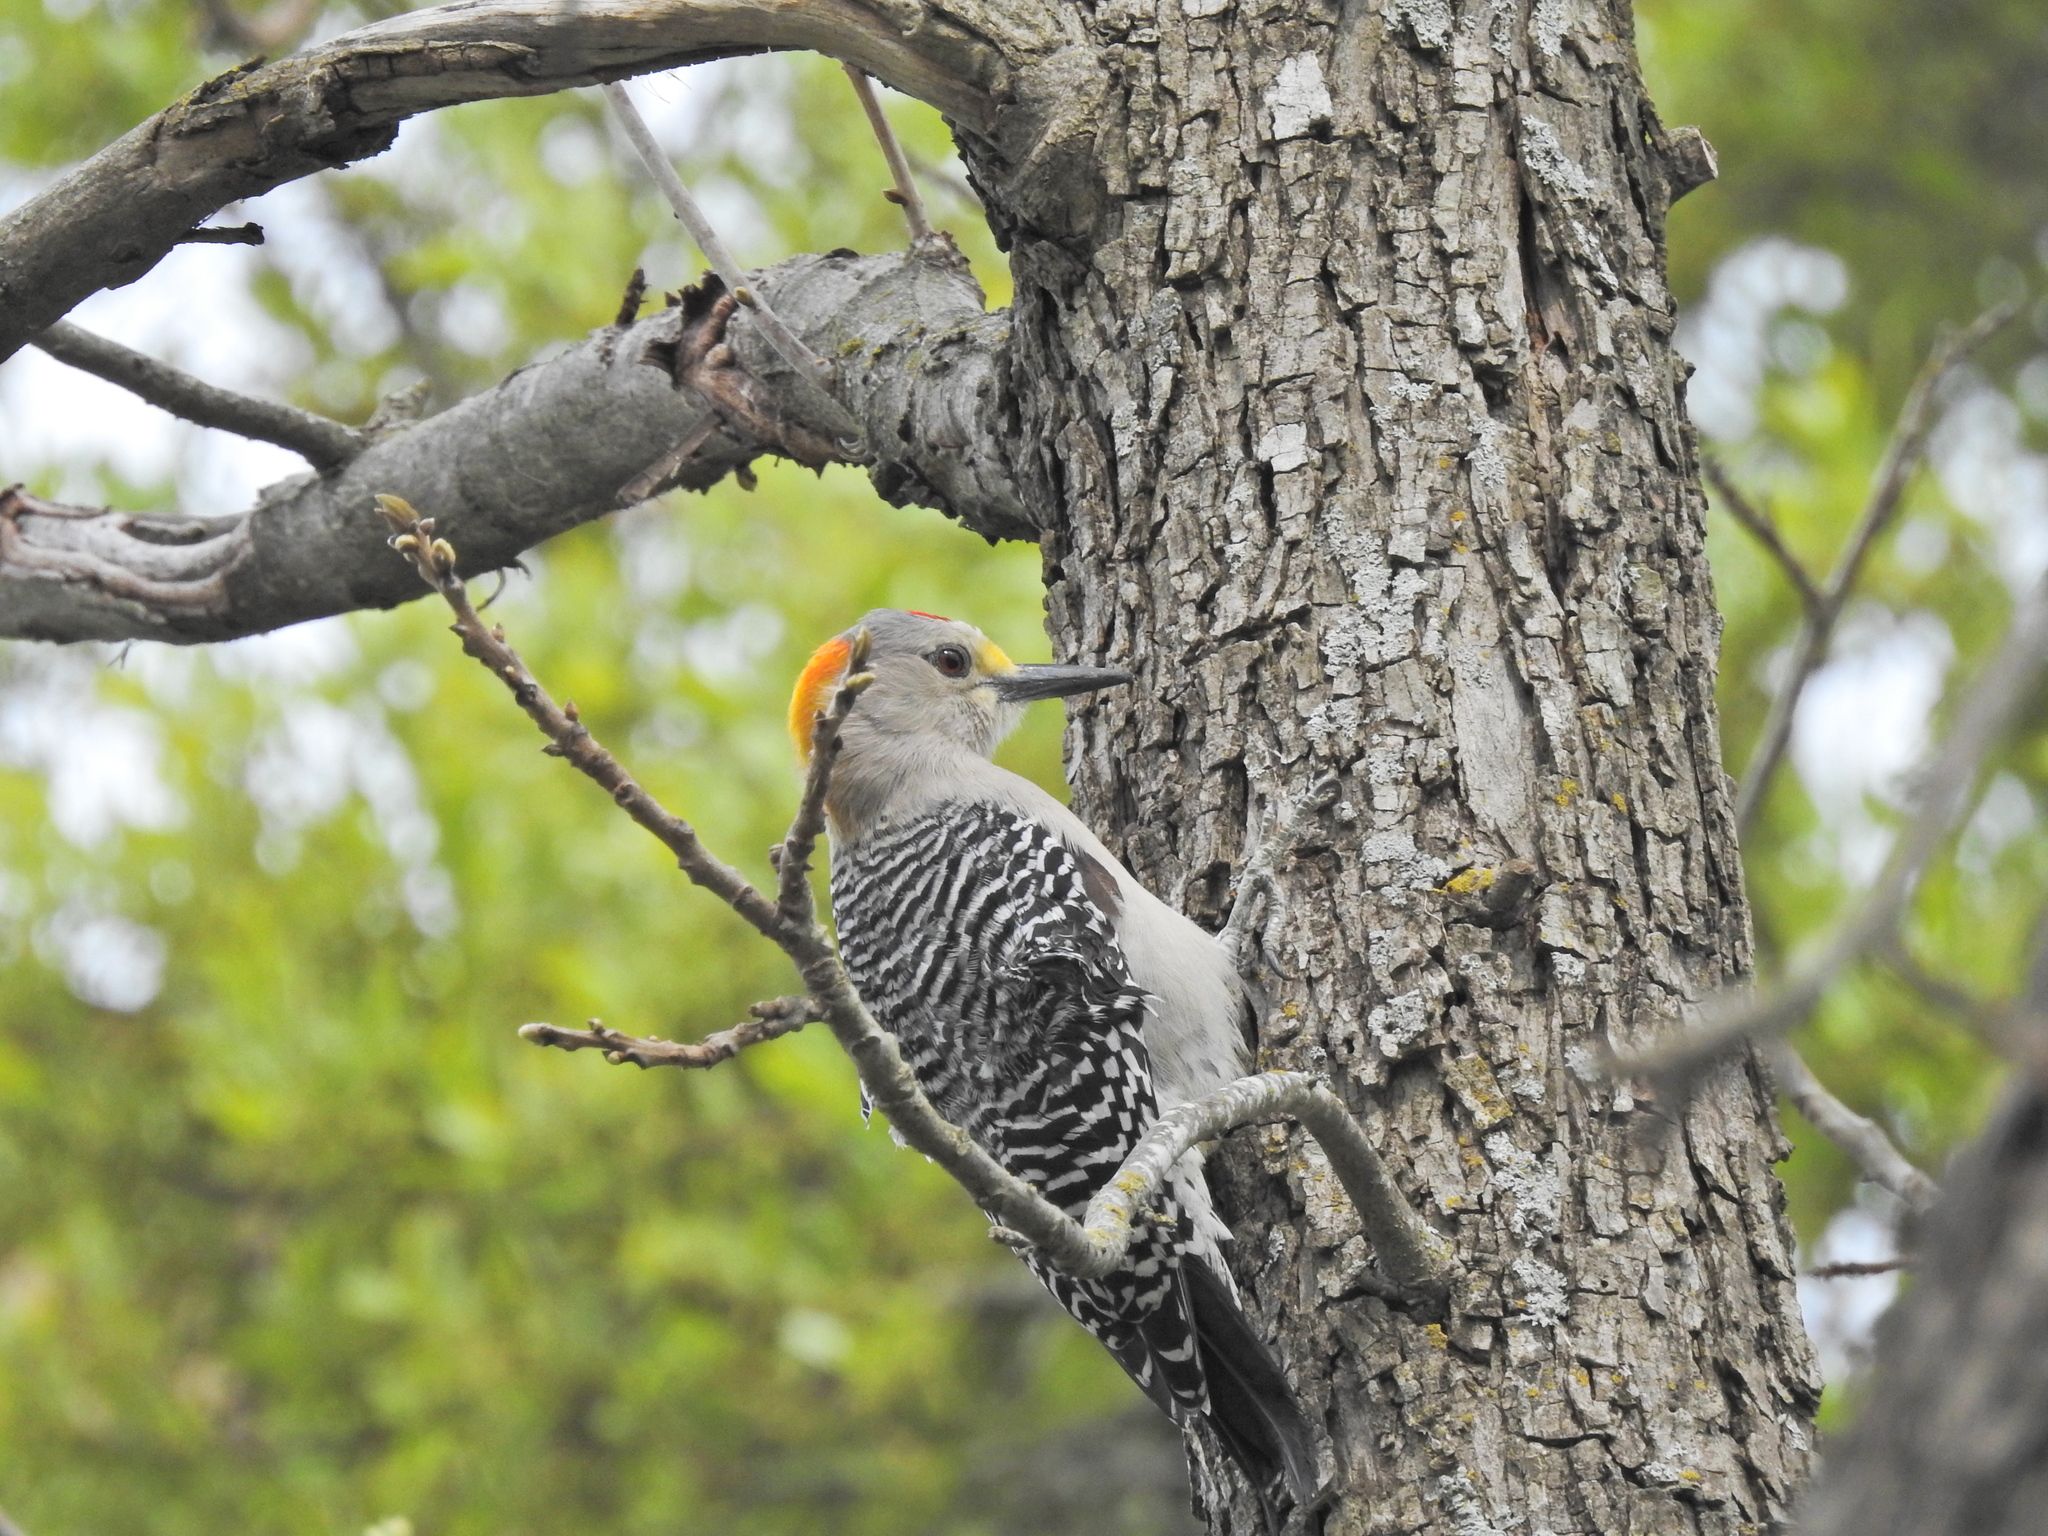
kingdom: Animalia
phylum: Chordata
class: Aves
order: Piciformes
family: Picidae
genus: Melanerpes
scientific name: Melanerpes aurifrons
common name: Golden-fronted woodpecker
